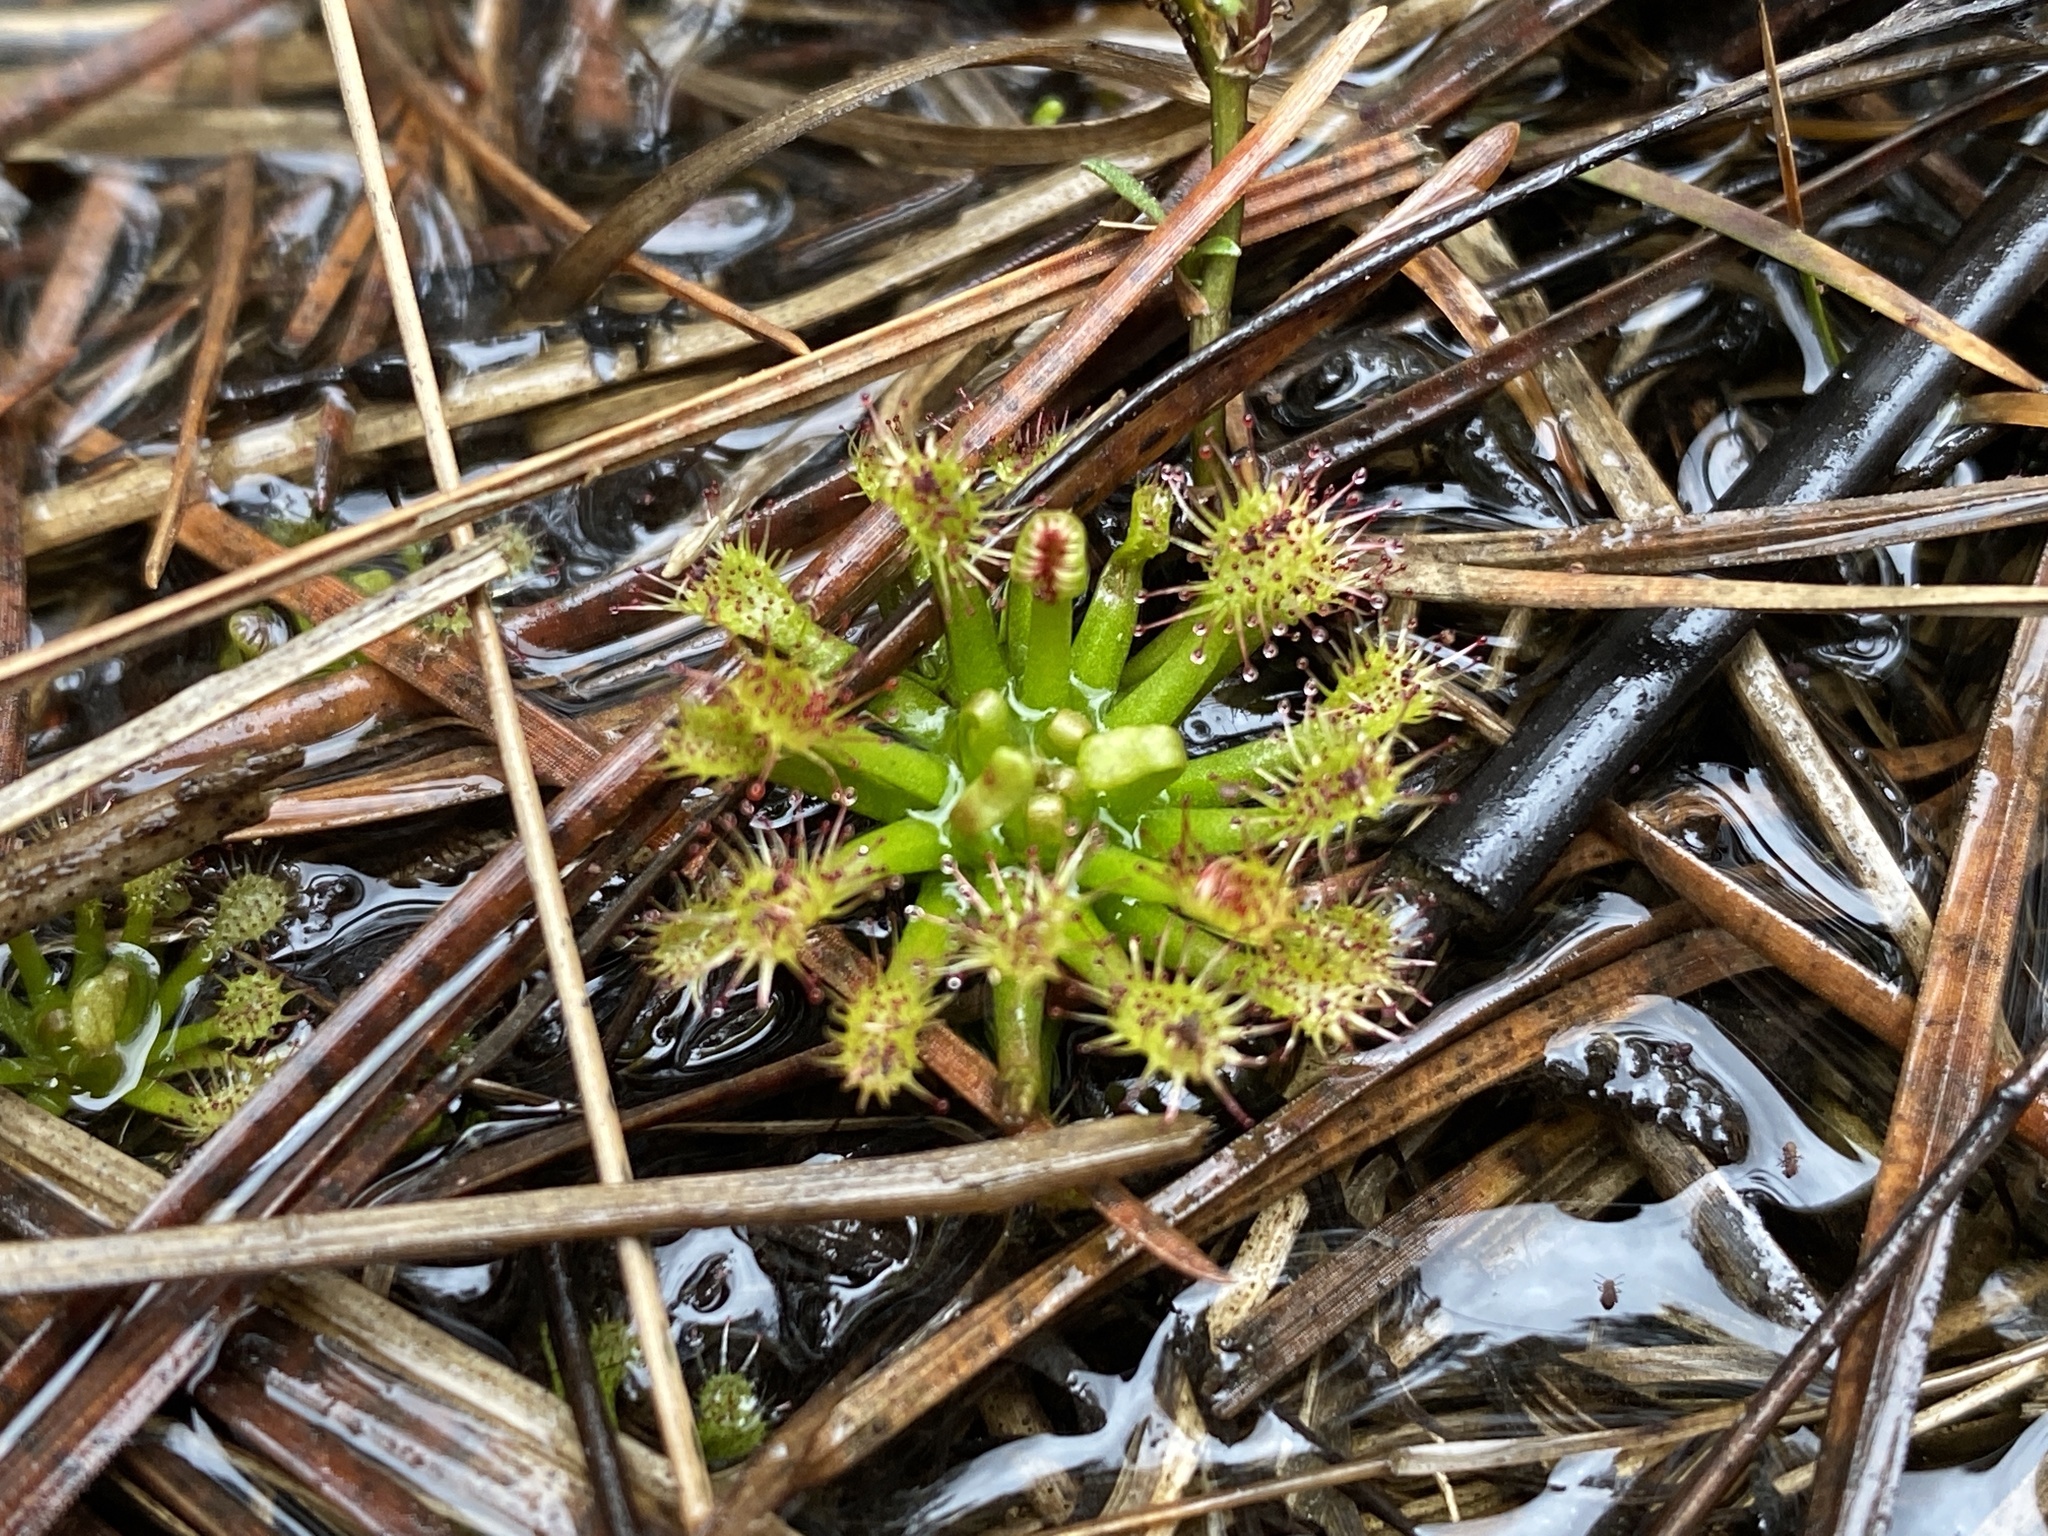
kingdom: Plantae
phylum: Tracheophyta
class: Magnoliopsida
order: Caryophyllales
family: Droseraceae
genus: Drosera
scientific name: Drosera intermedia
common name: Oblong-leaved sundew
